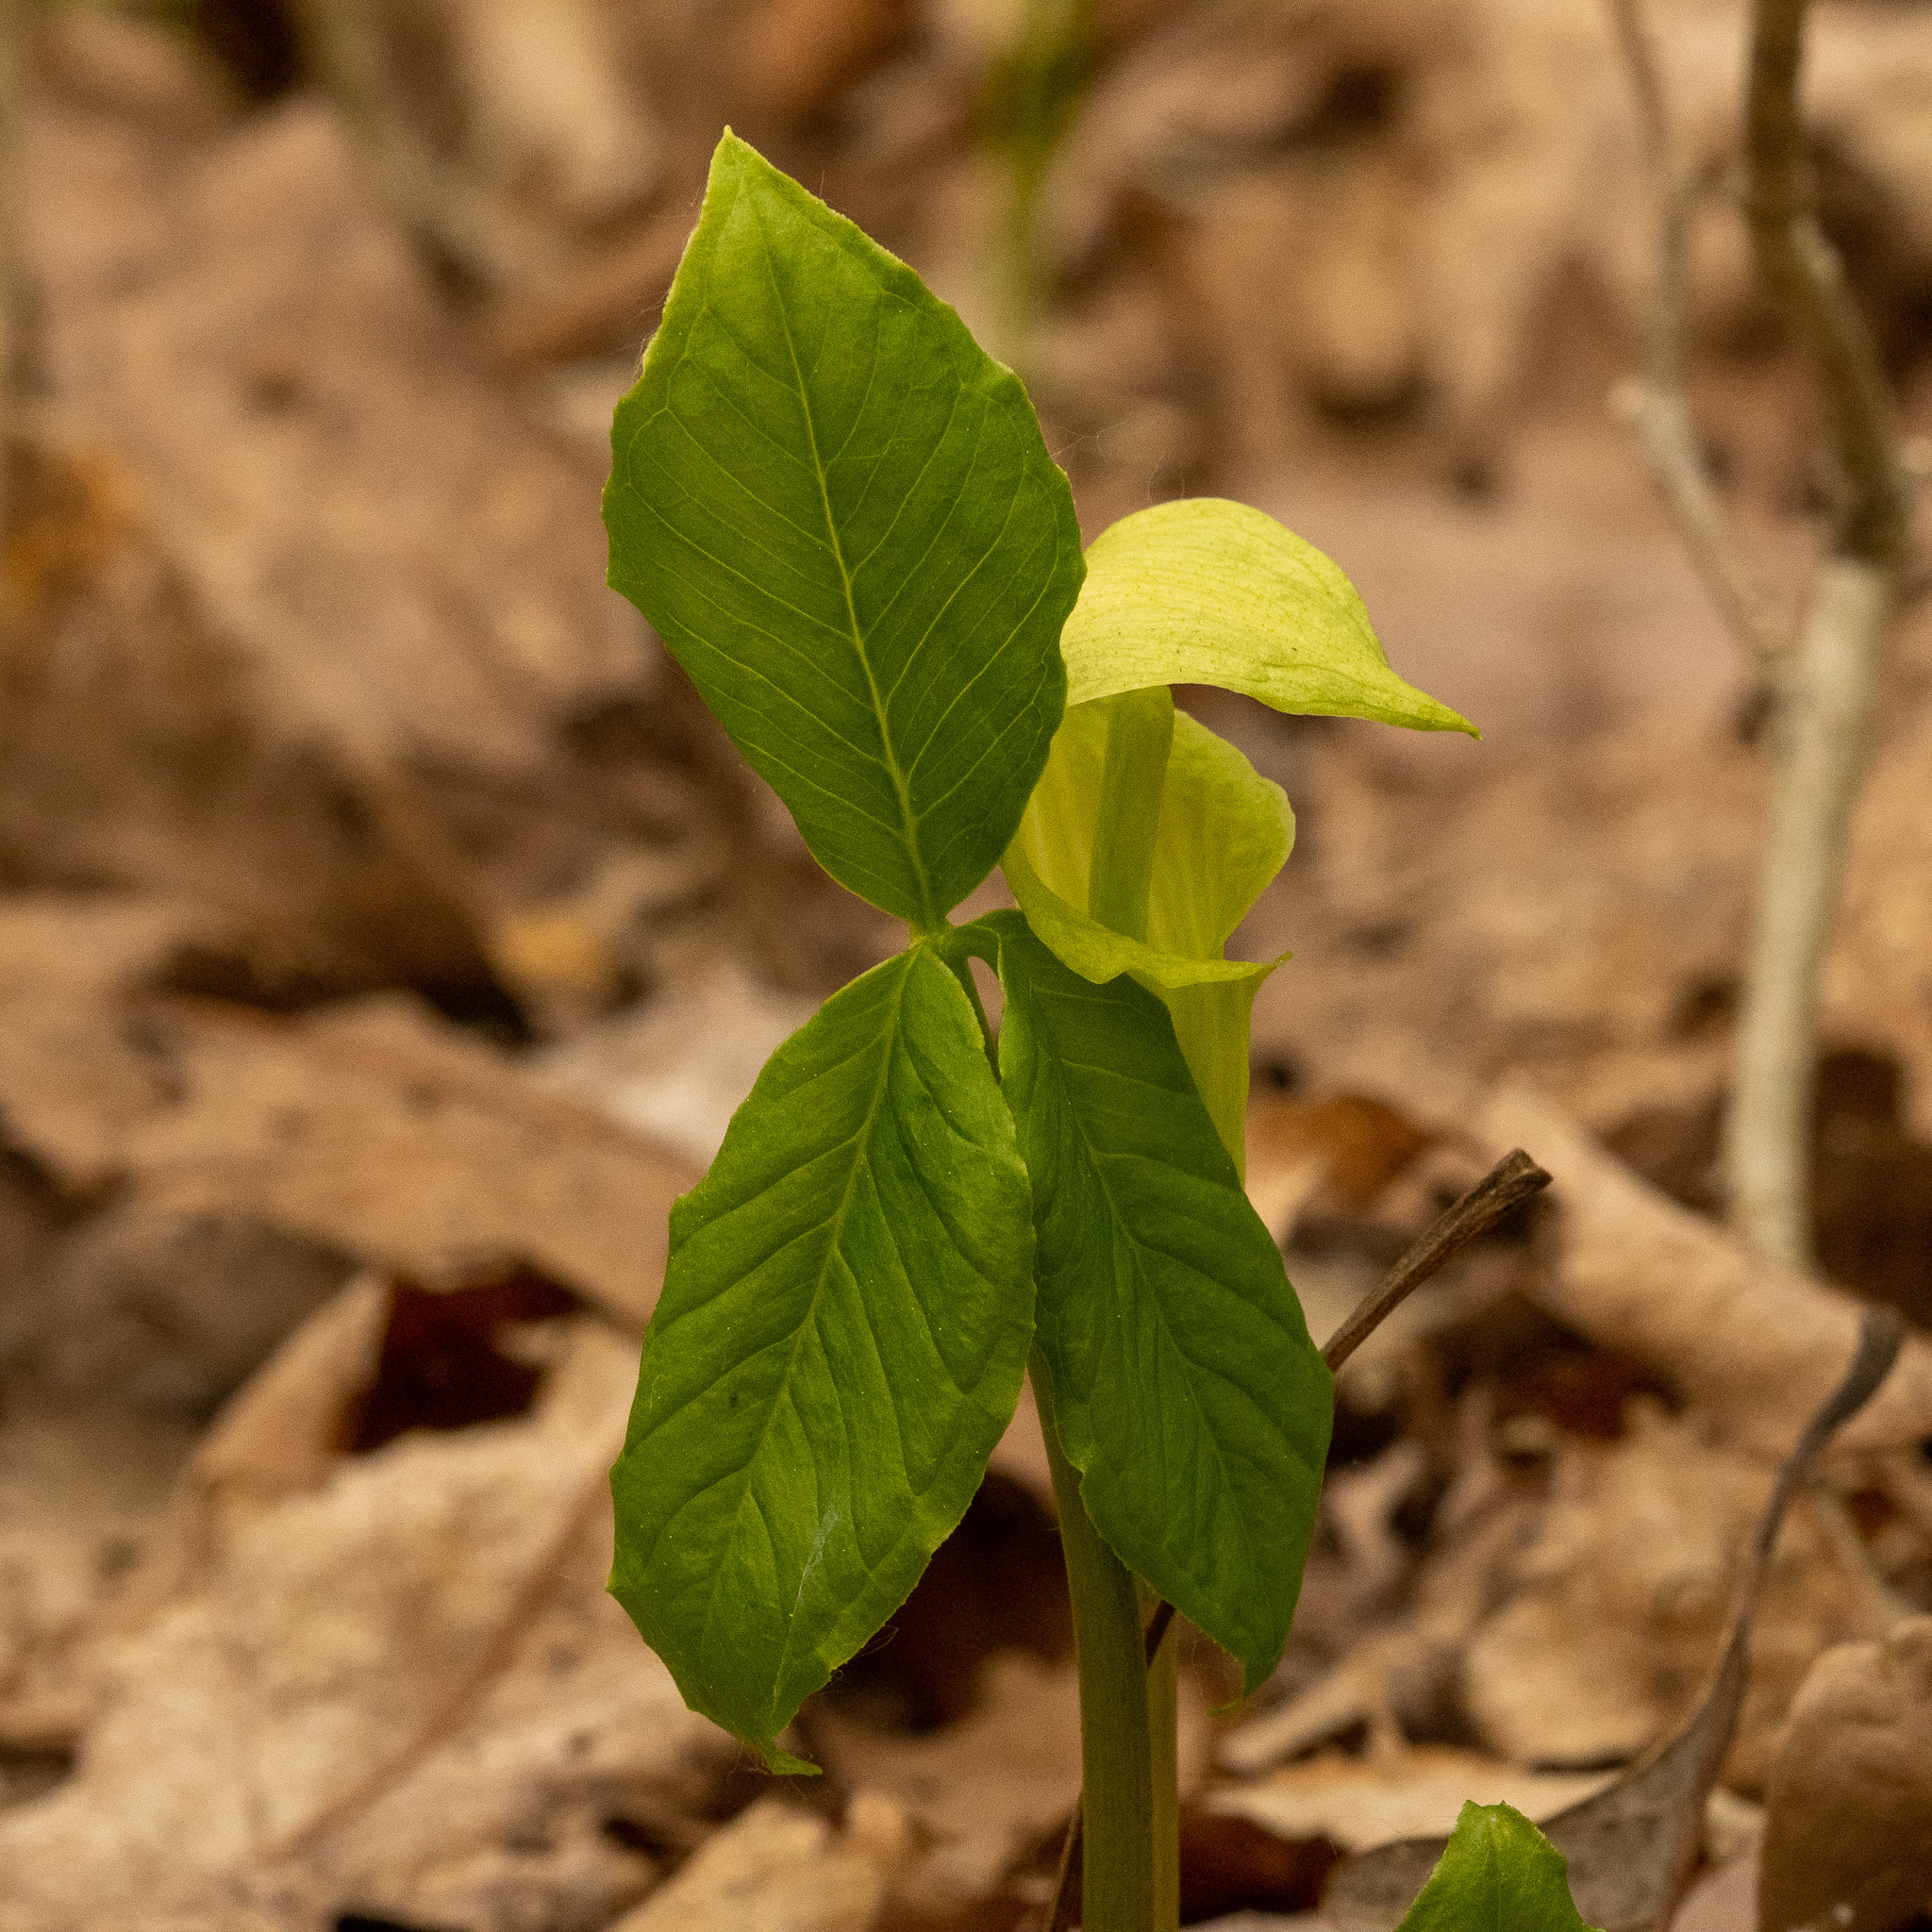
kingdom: Plantae
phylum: Tracheophyta
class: Liliopsida
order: Alismatales
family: Araceae
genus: Arisaema
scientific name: Arisaema triphyllum
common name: Jack-in-the-pulpit
